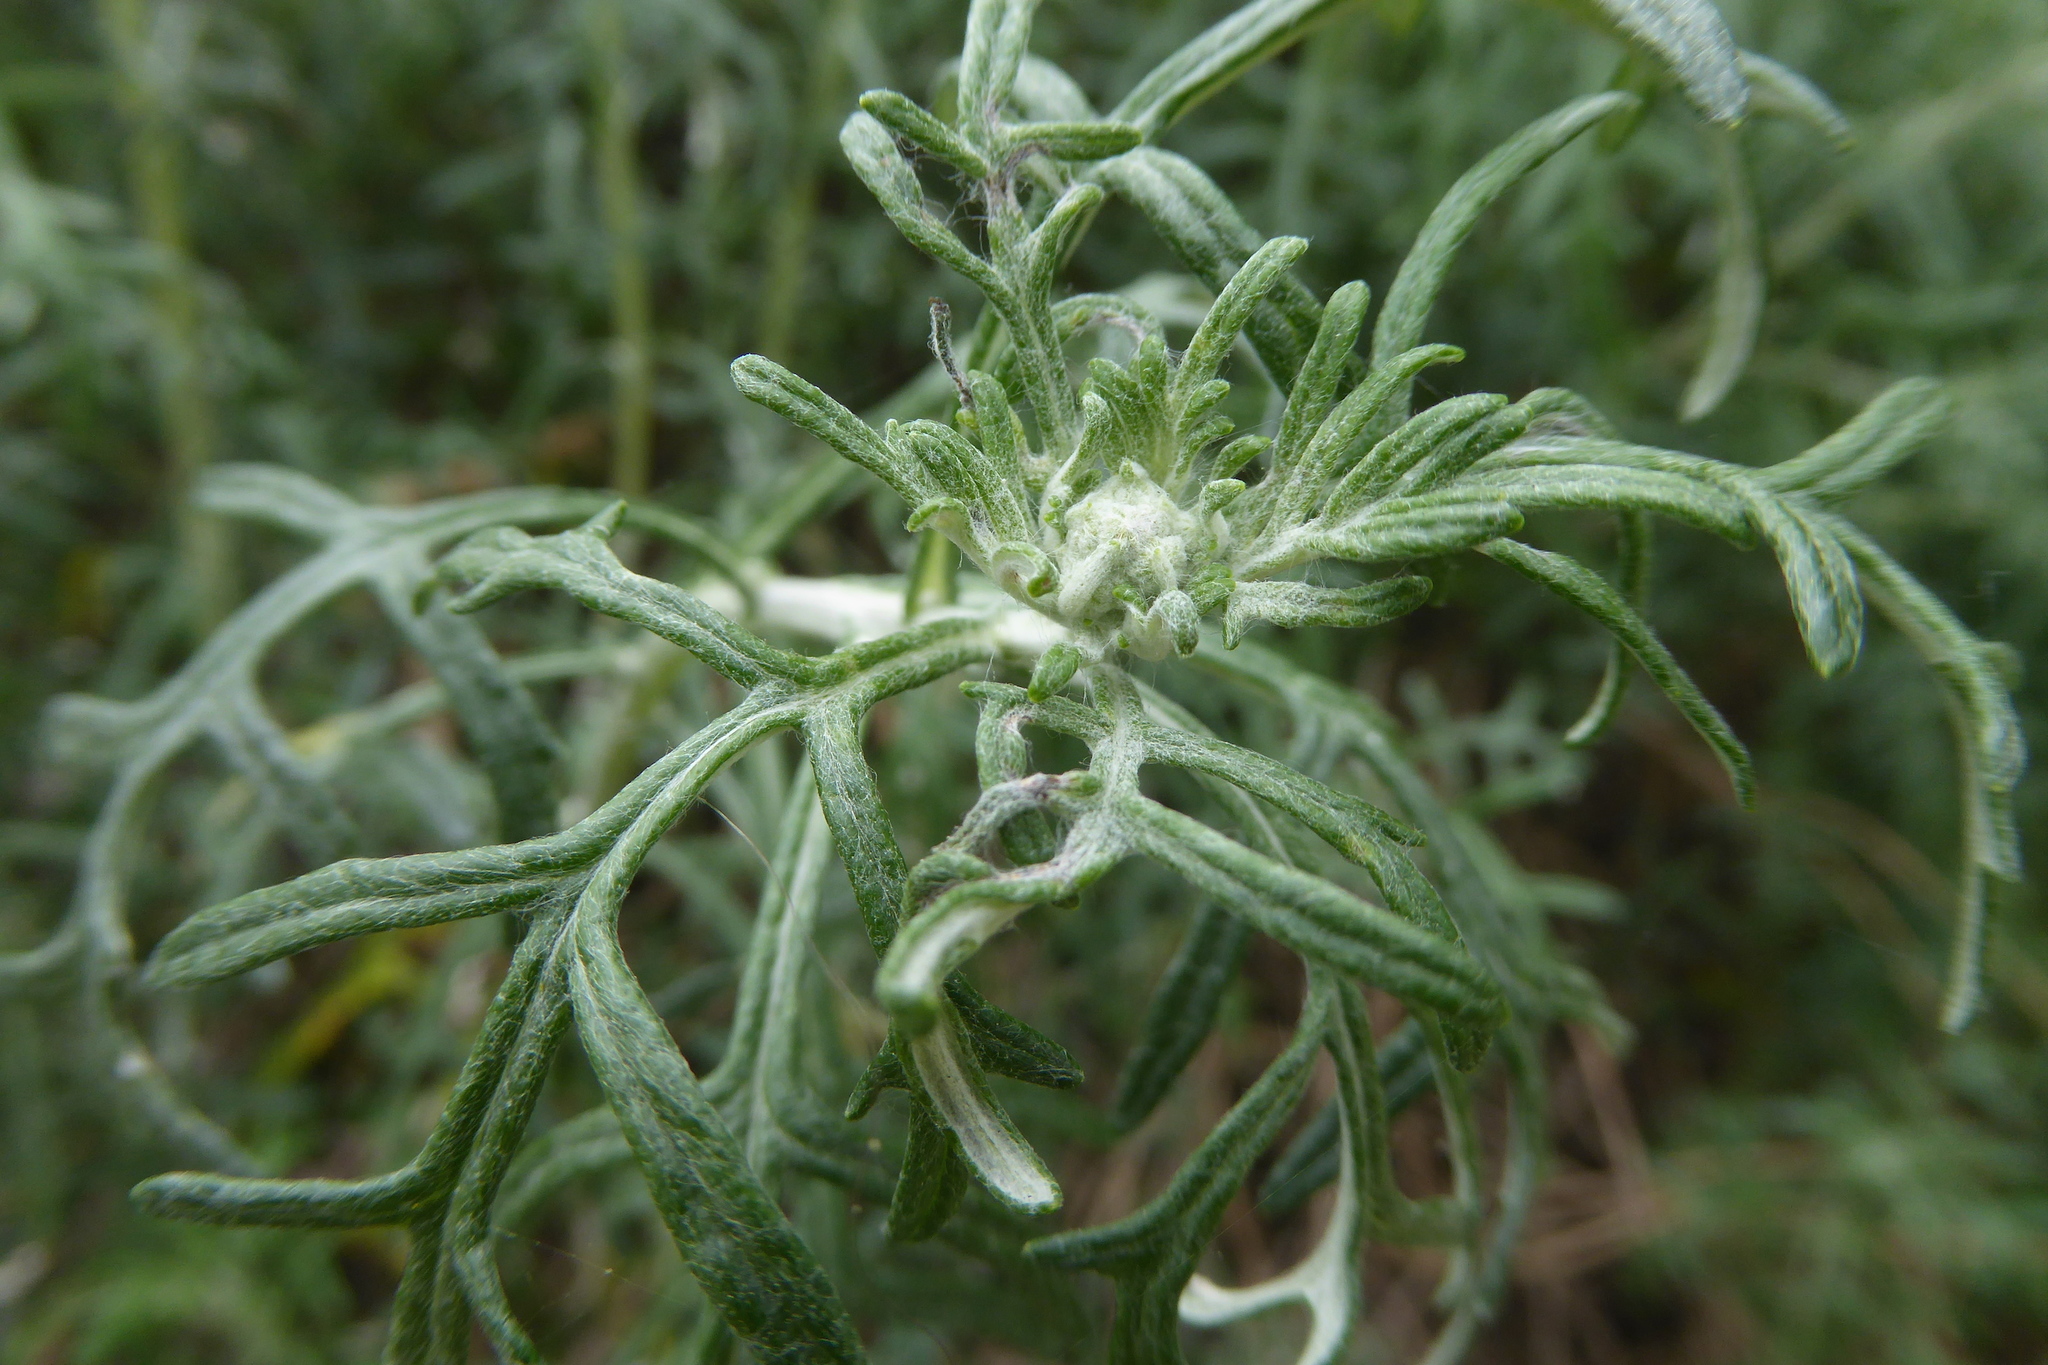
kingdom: Plantae
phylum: Tracheophyta
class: Magnoliopsida
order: Asterales
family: Asteraceae
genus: Eriophyllum
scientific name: Eriophyllum staechadifolium
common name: Lizardtail
